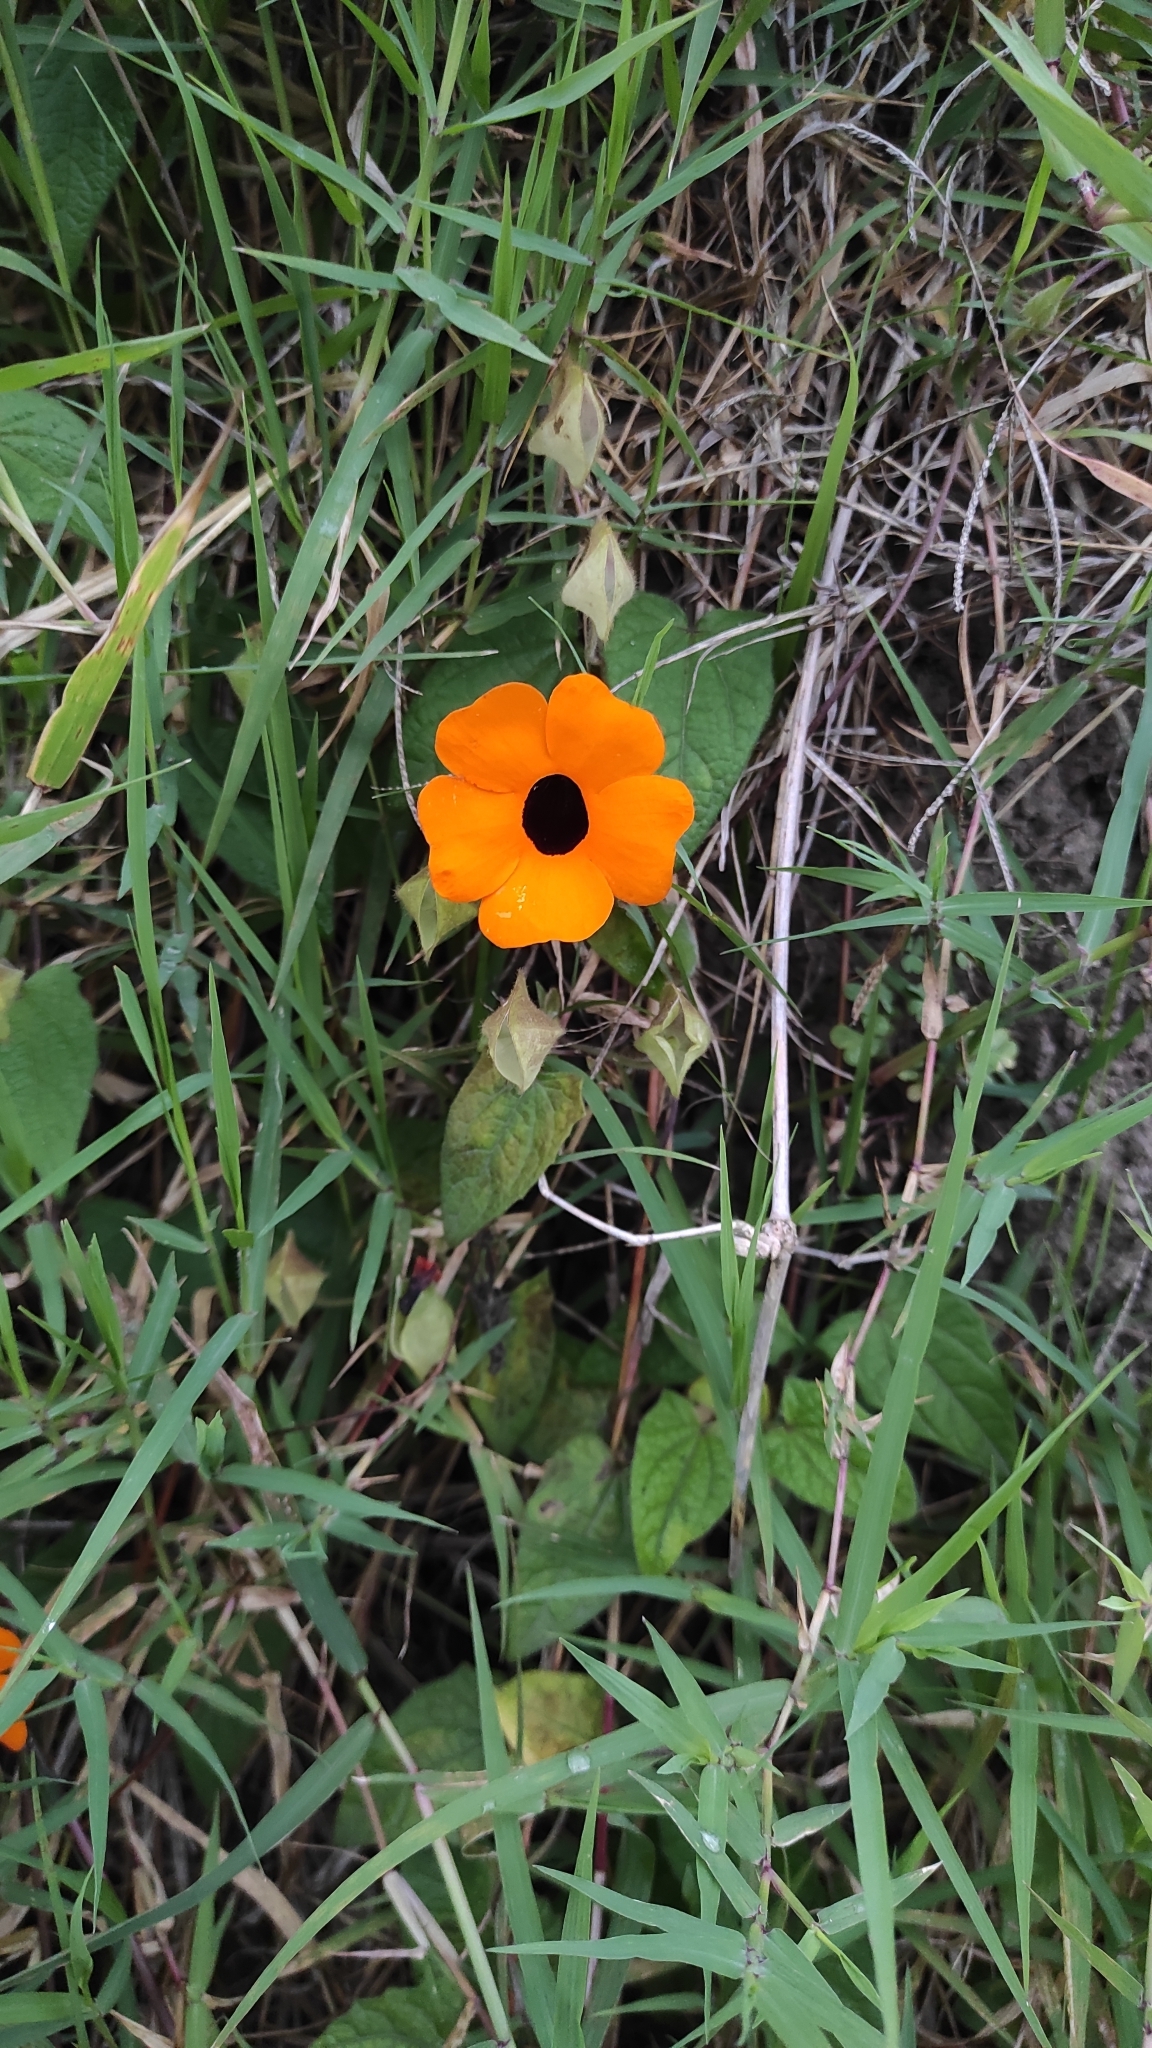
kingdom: Plantae
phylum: Tracheophyta
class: Magnoliopsida
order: Lamiales
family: Acanthaceae
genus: Thunbergia
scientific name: Thunbergia alata
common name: Blackeyed susan vine
